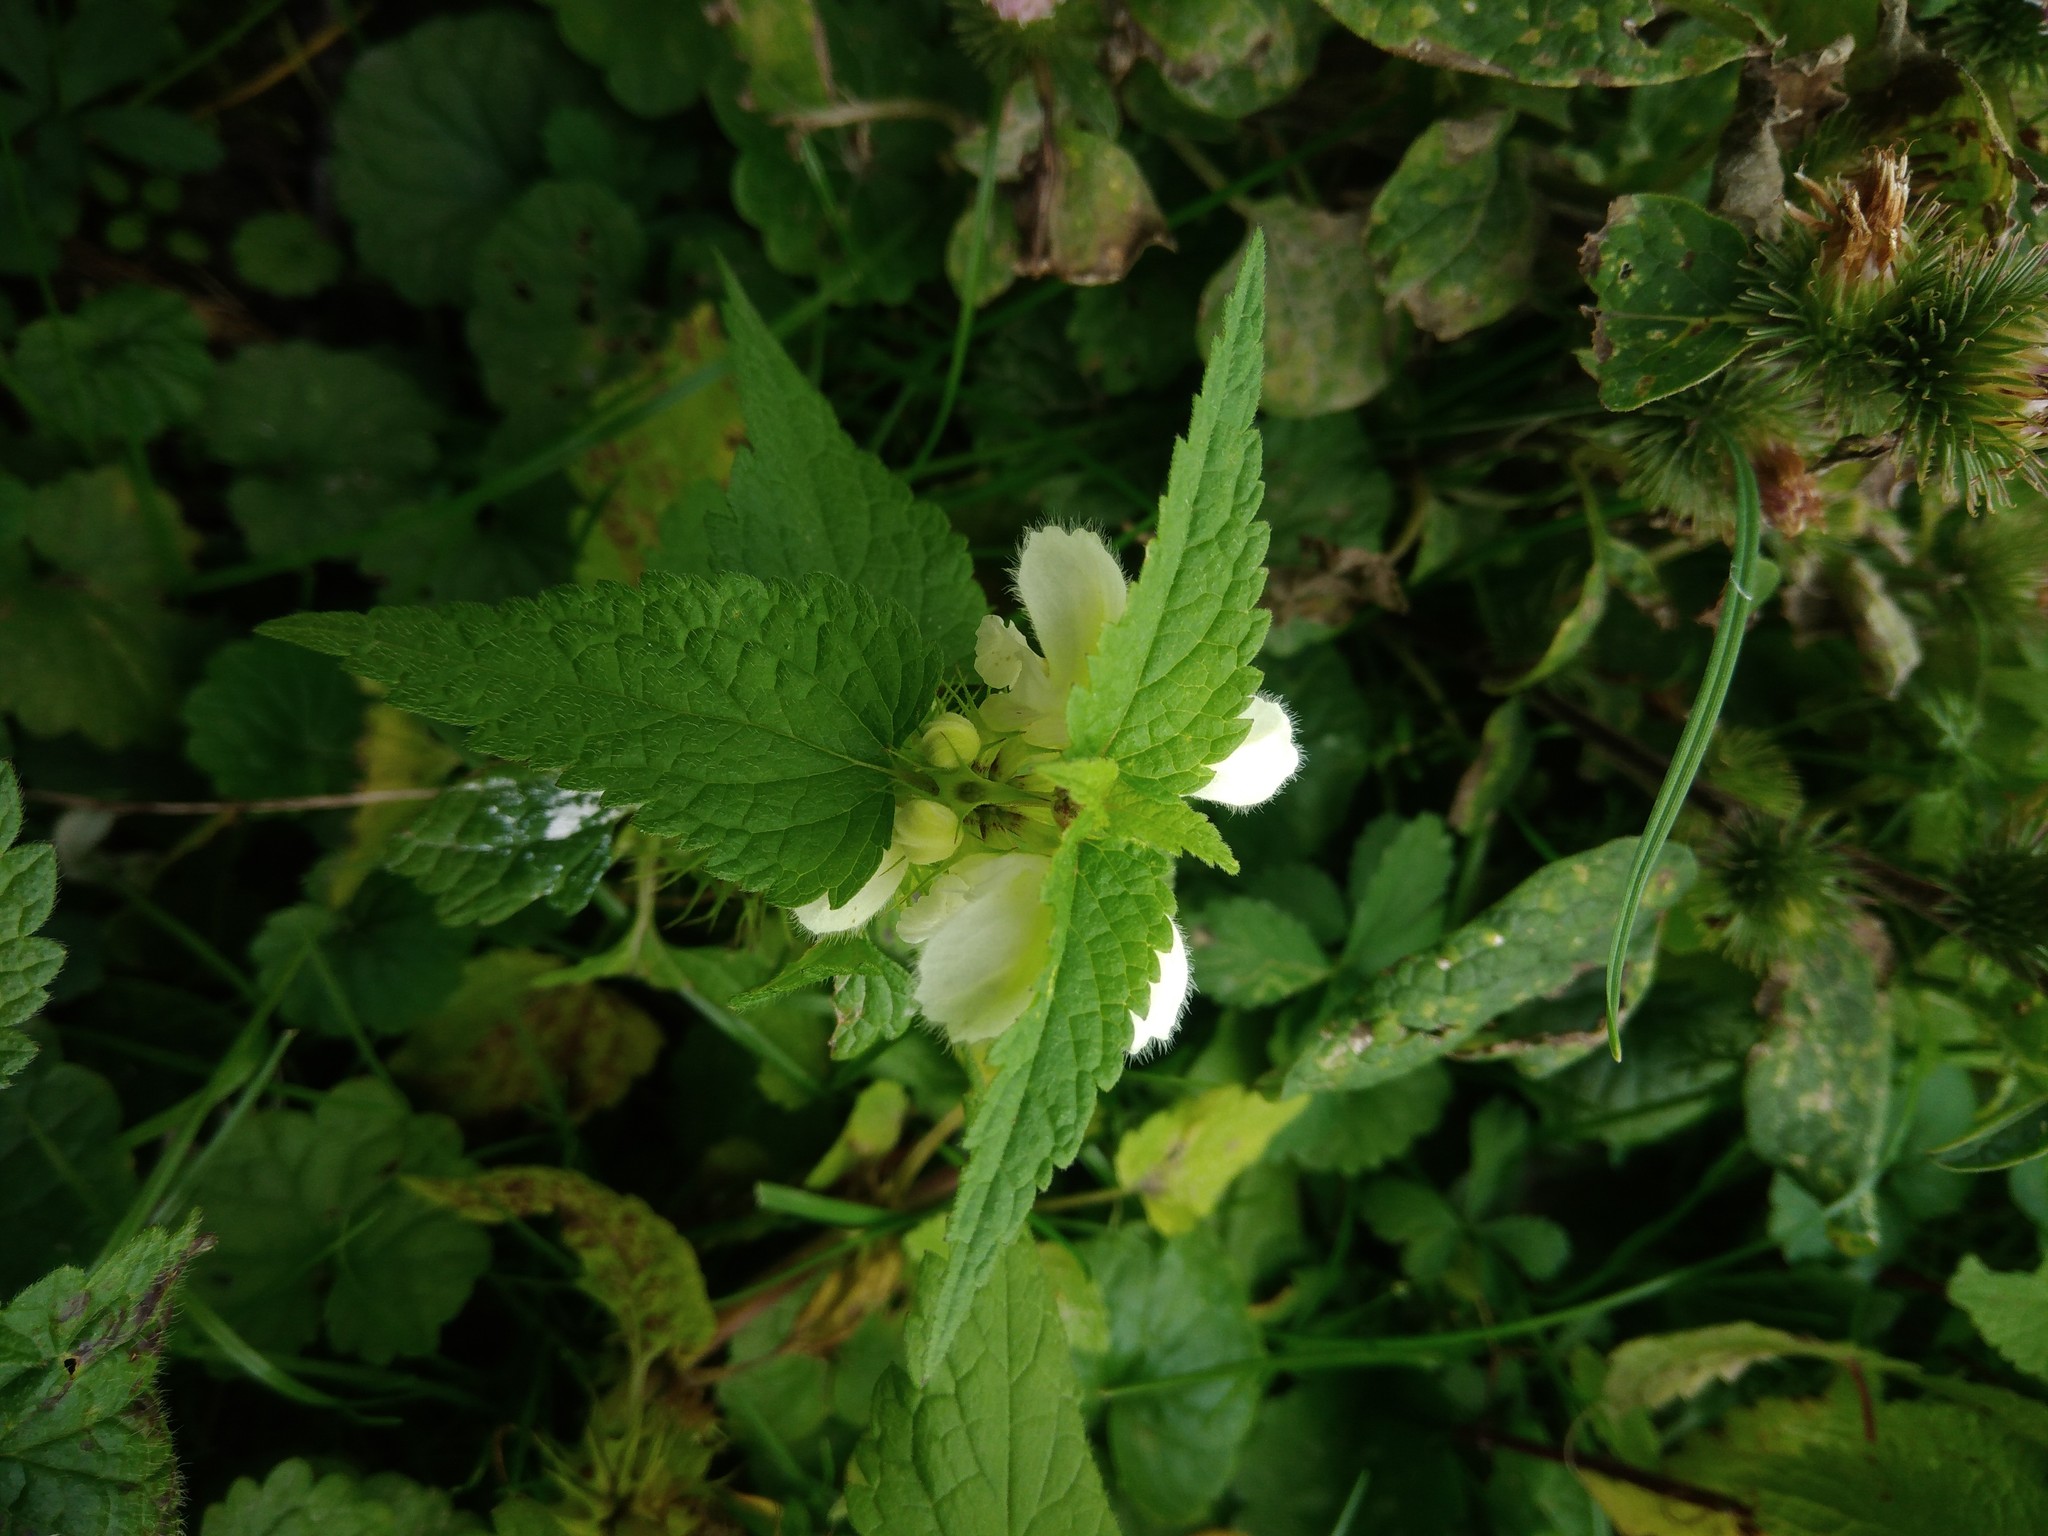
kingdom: Plantae
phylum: Tracheophyta
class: Magnoliopsida
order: Lamiales
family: Lamiaceae
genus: Lamium
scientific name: Lamium album
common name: White dead-nettle
